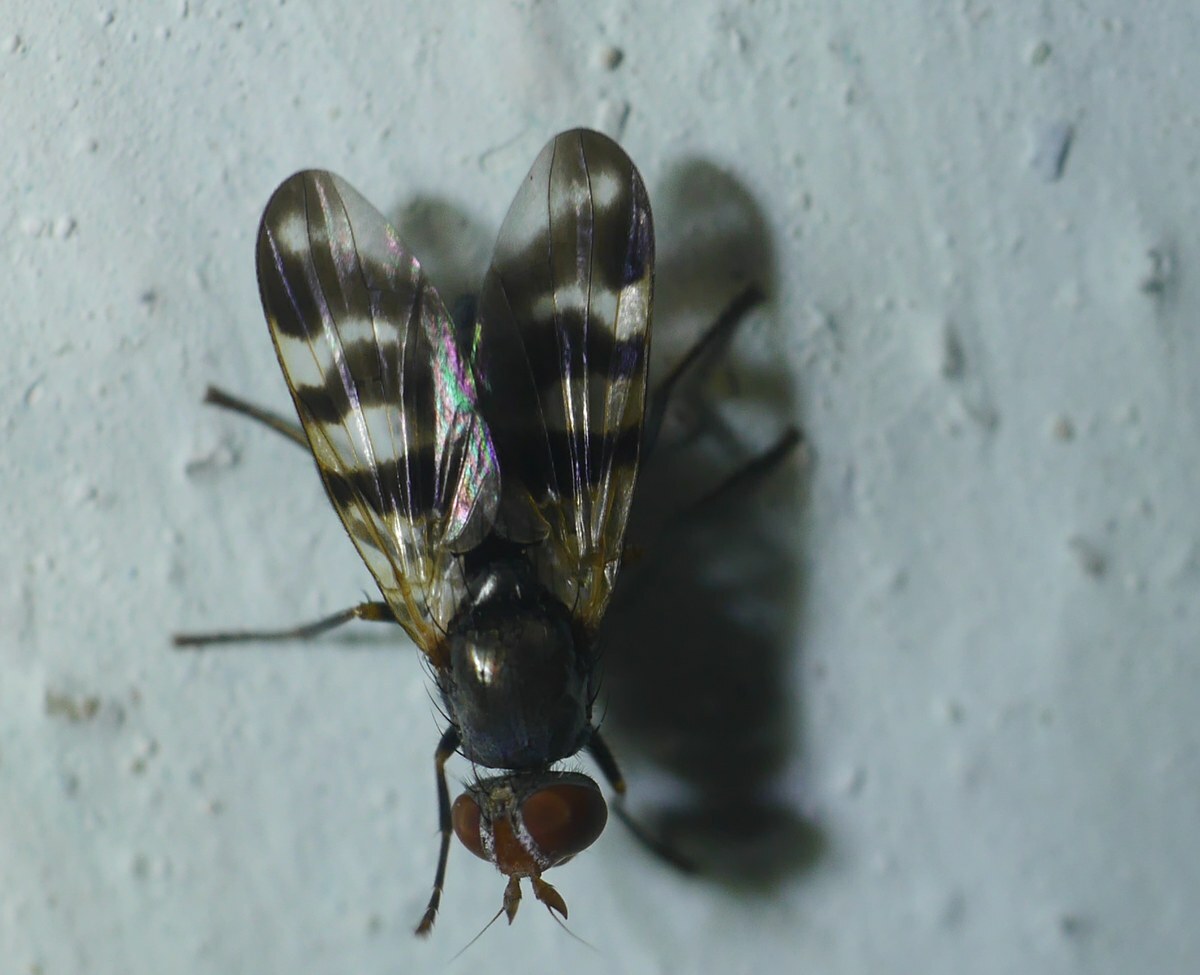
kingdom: Animalia
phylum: Arthropoda
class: Insecta
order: Diptera
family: Ulidiidae
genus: Ceroxys
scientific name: Ceroxys urticae
